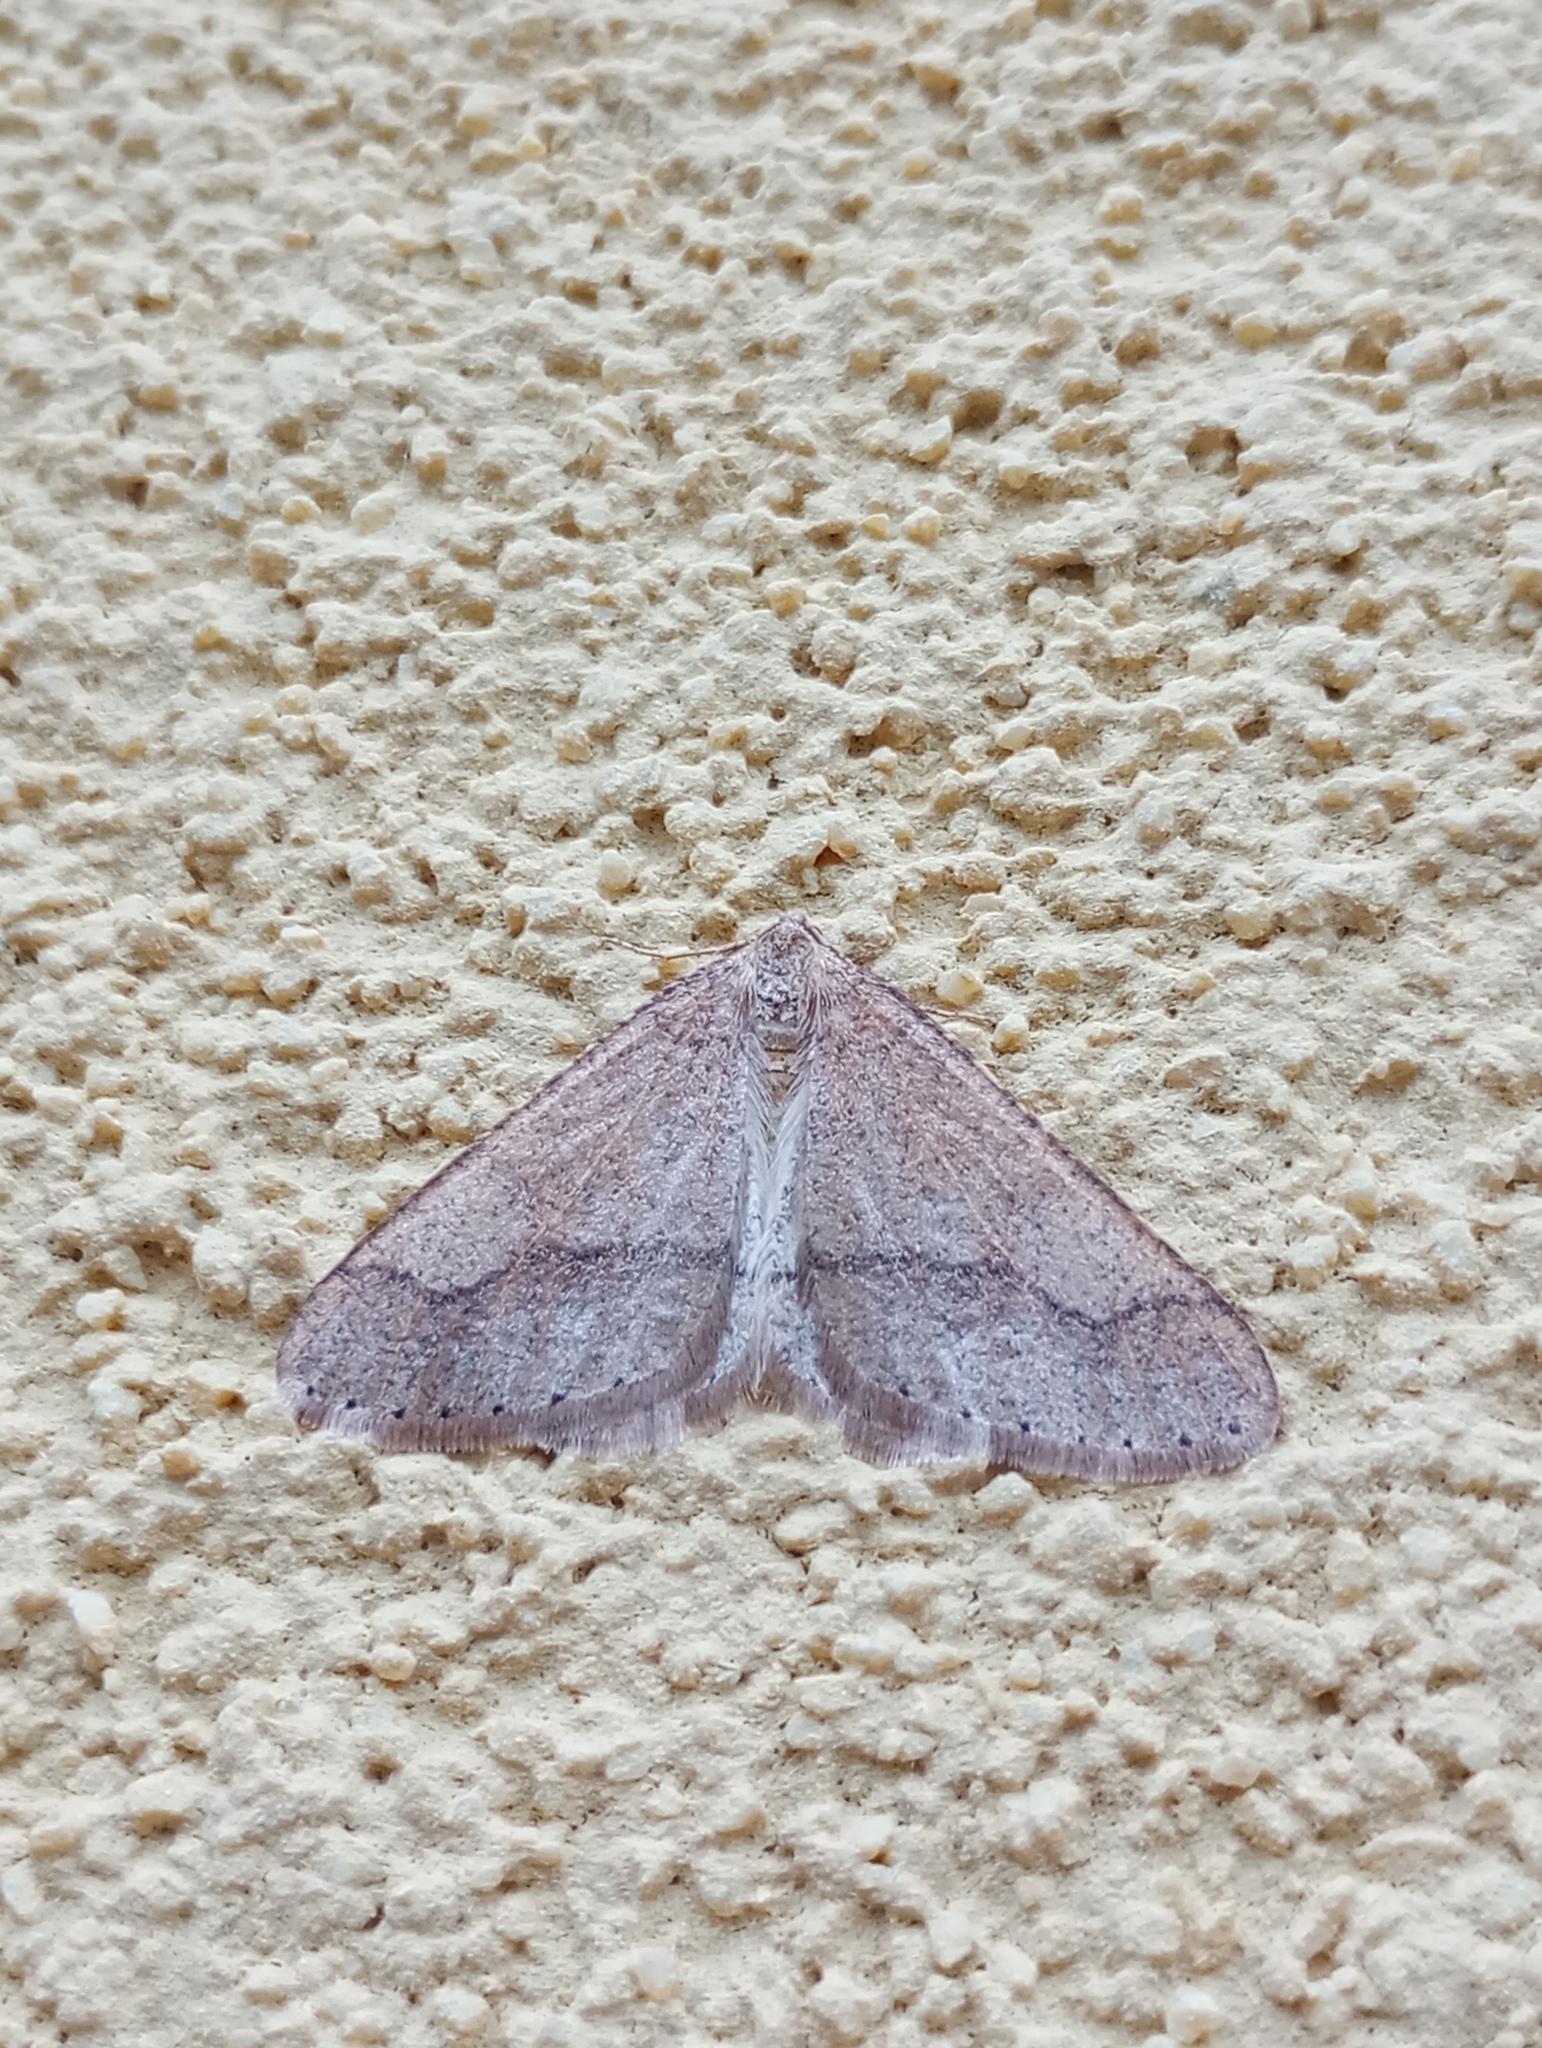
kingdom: Animalia
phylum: Arthropoda
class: Insecta
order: Lepidoptera
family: Geometridae
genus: Agriopis
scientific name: Agriopis marginaria
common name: Dotted border
